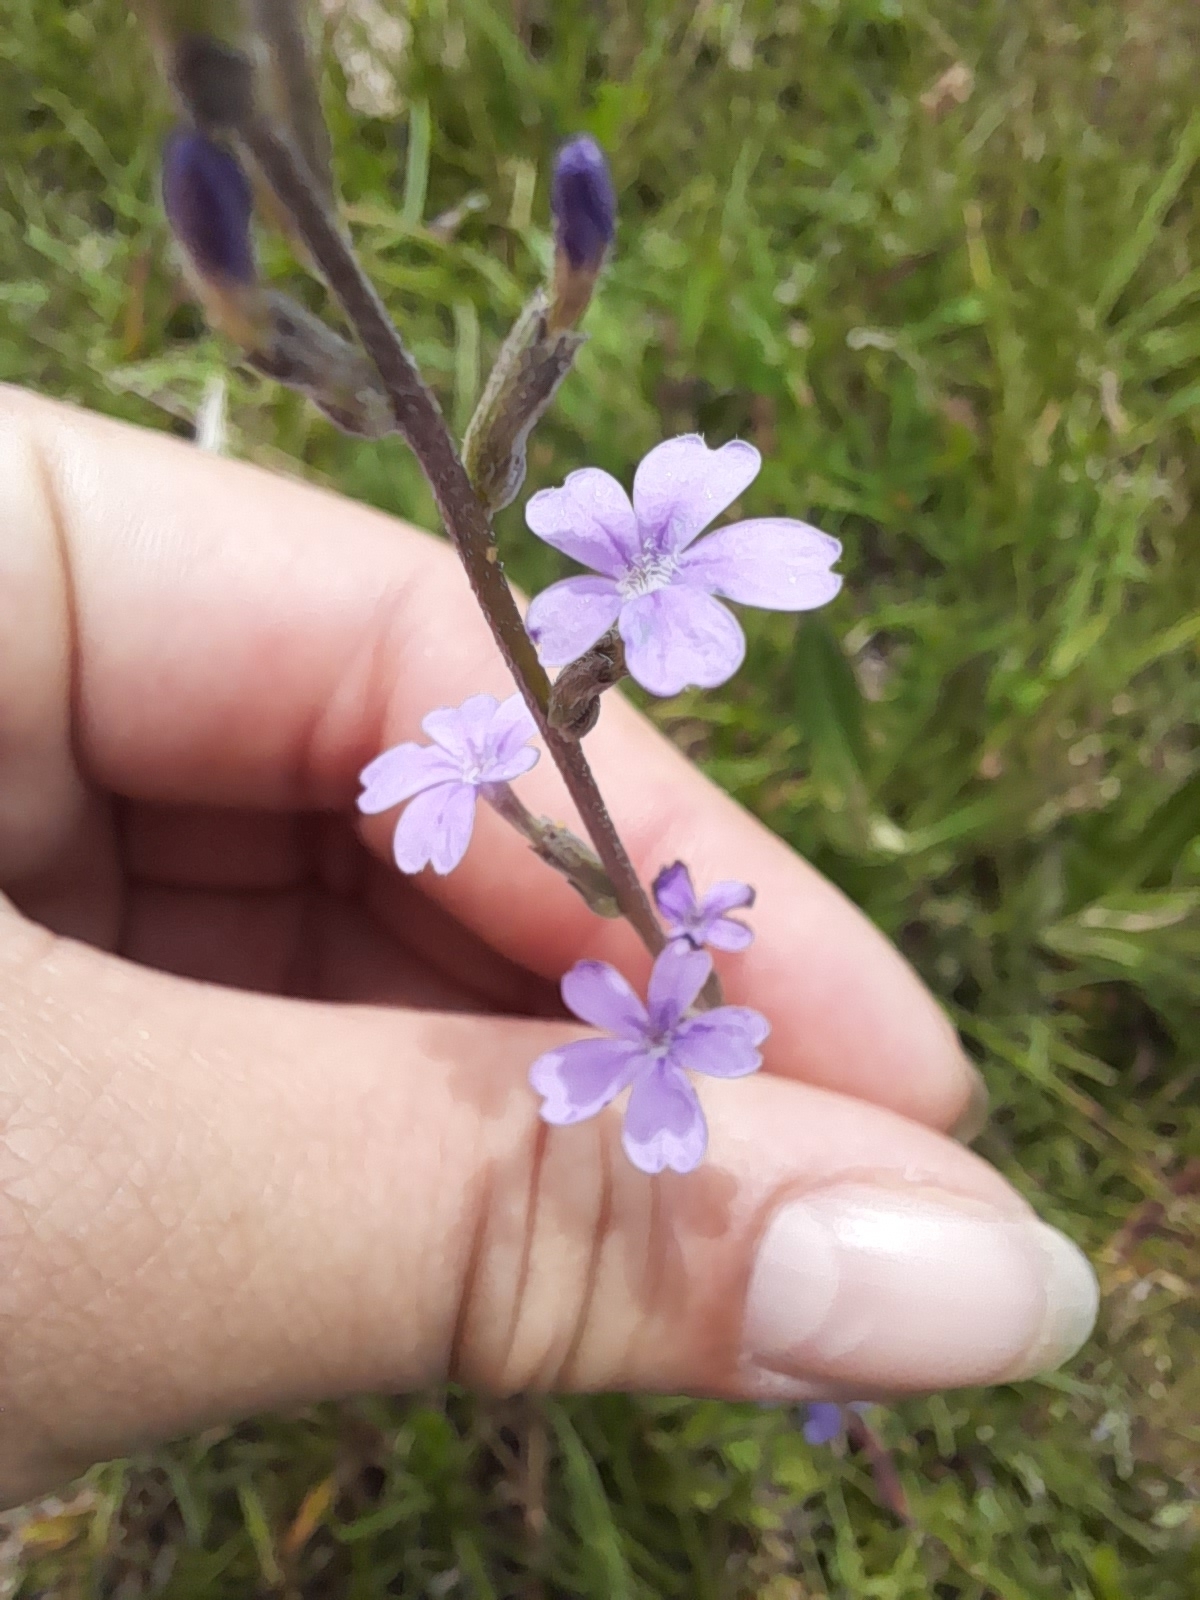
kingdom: Plantae
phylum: Tracheophyta
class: Magnoliopsida
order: Lamiales
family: Orobanchaceae
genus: Buchnera
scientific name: Buchnera longifolia
